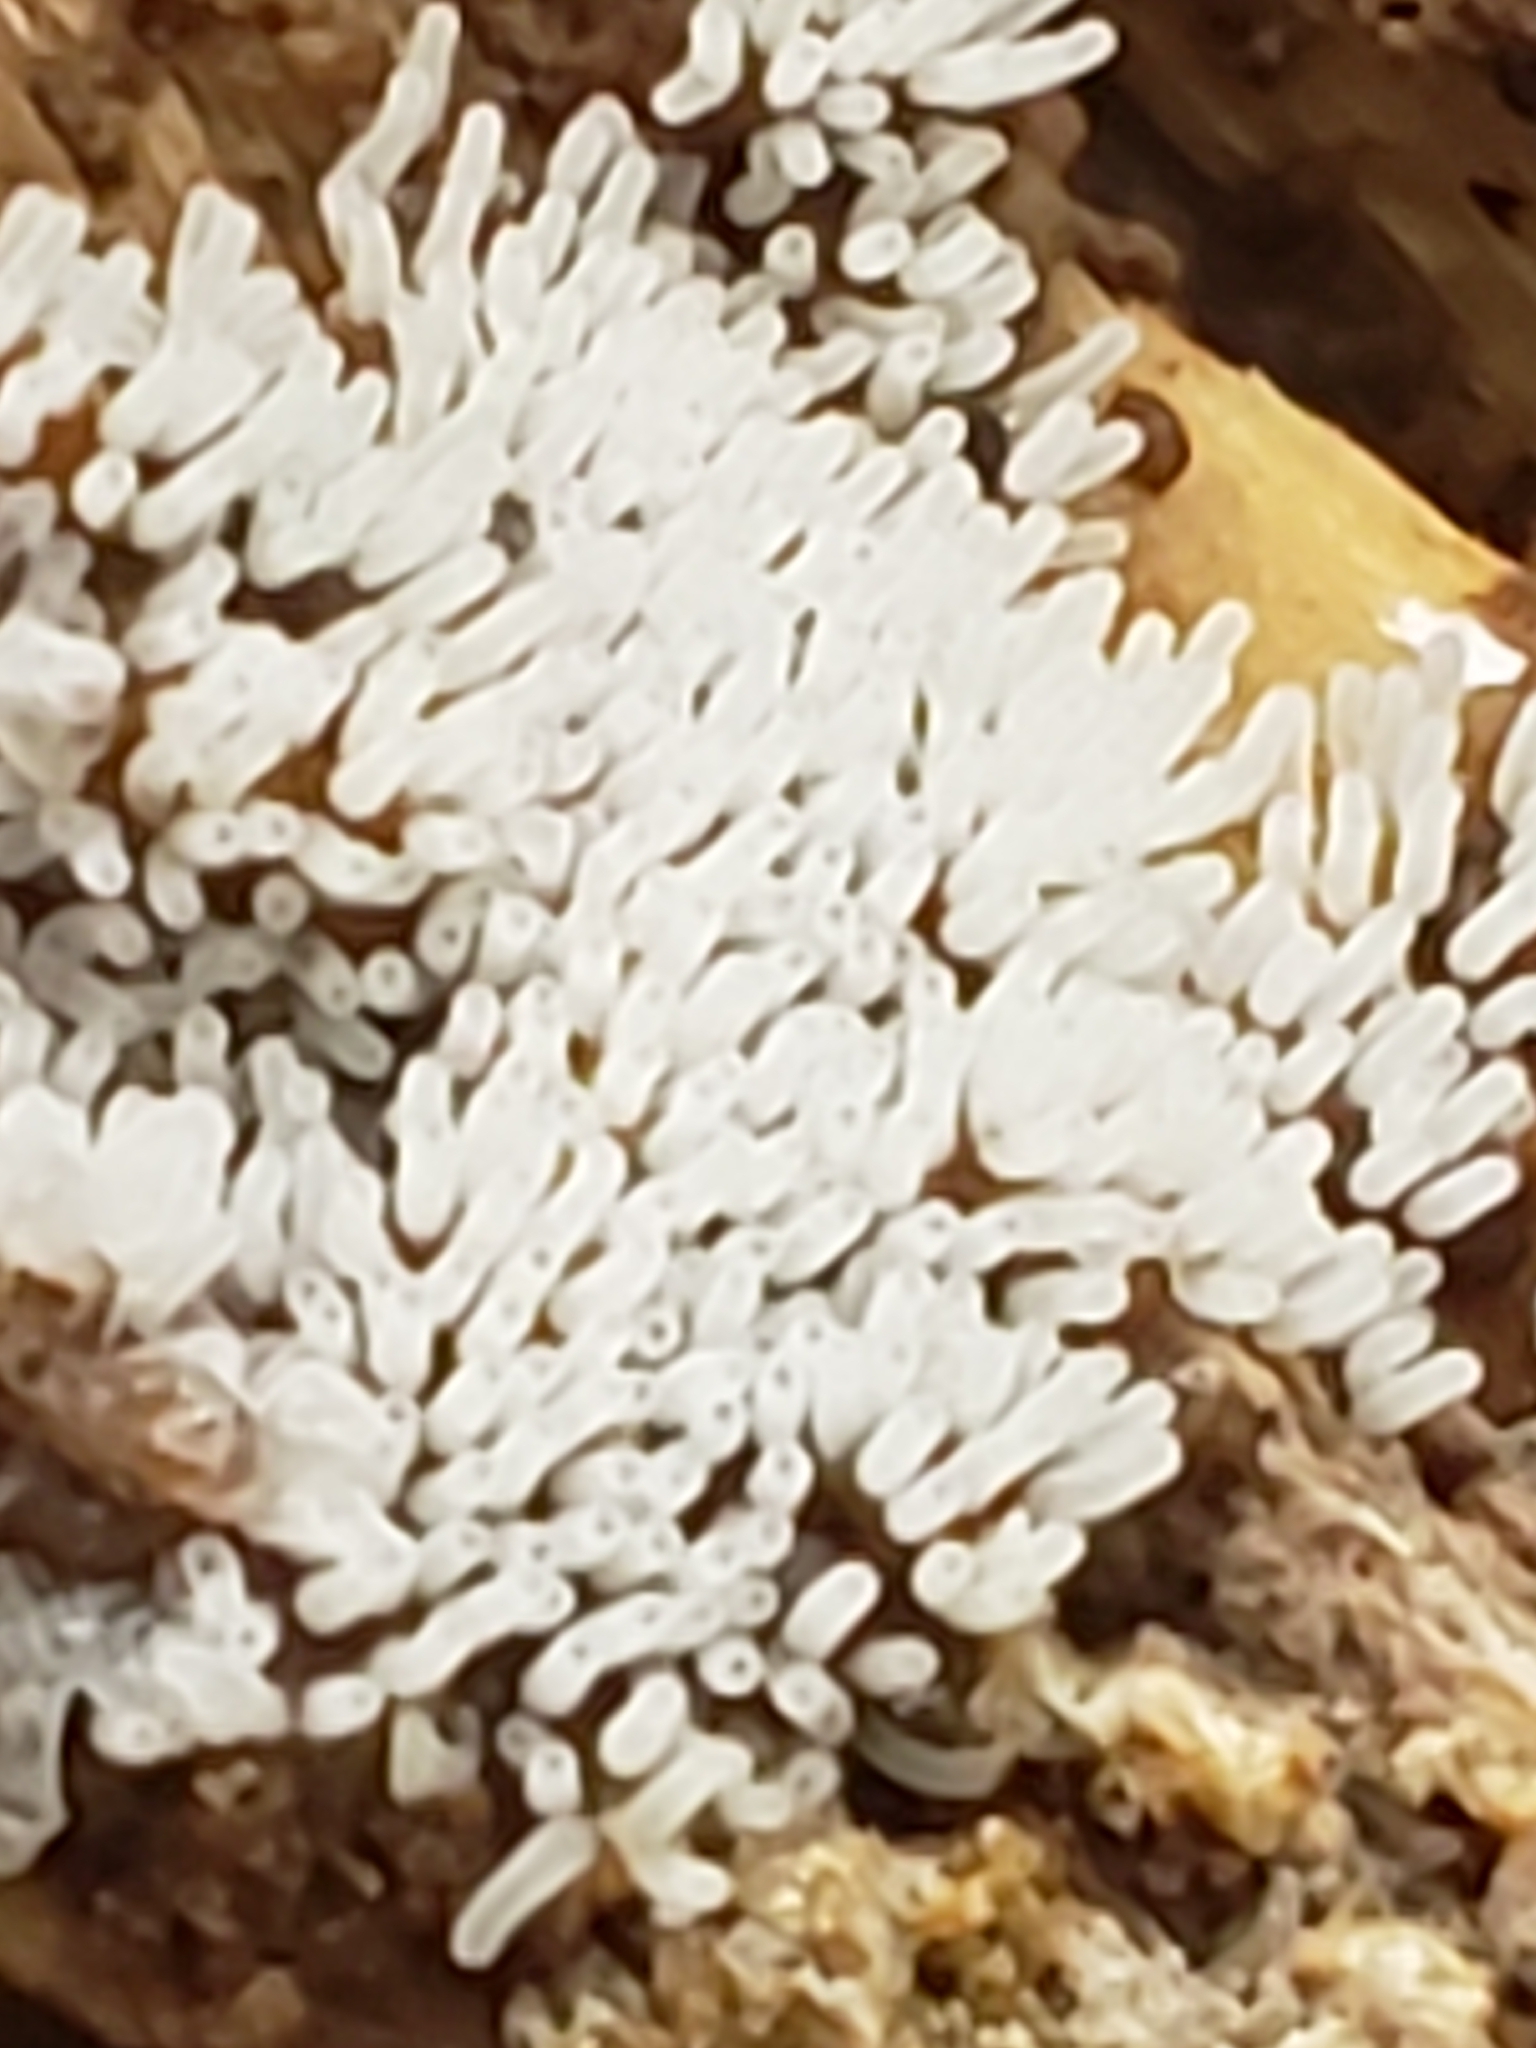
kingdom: Protozoa
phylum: Mycetozoa
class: Protosteliomycetes
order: Ceratiomyxales
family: Ceratiomyxaceae
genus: Ceratiomyxa
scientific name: Ceratiomyxa fruticulosa
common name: Honeycomb coral slime mold
